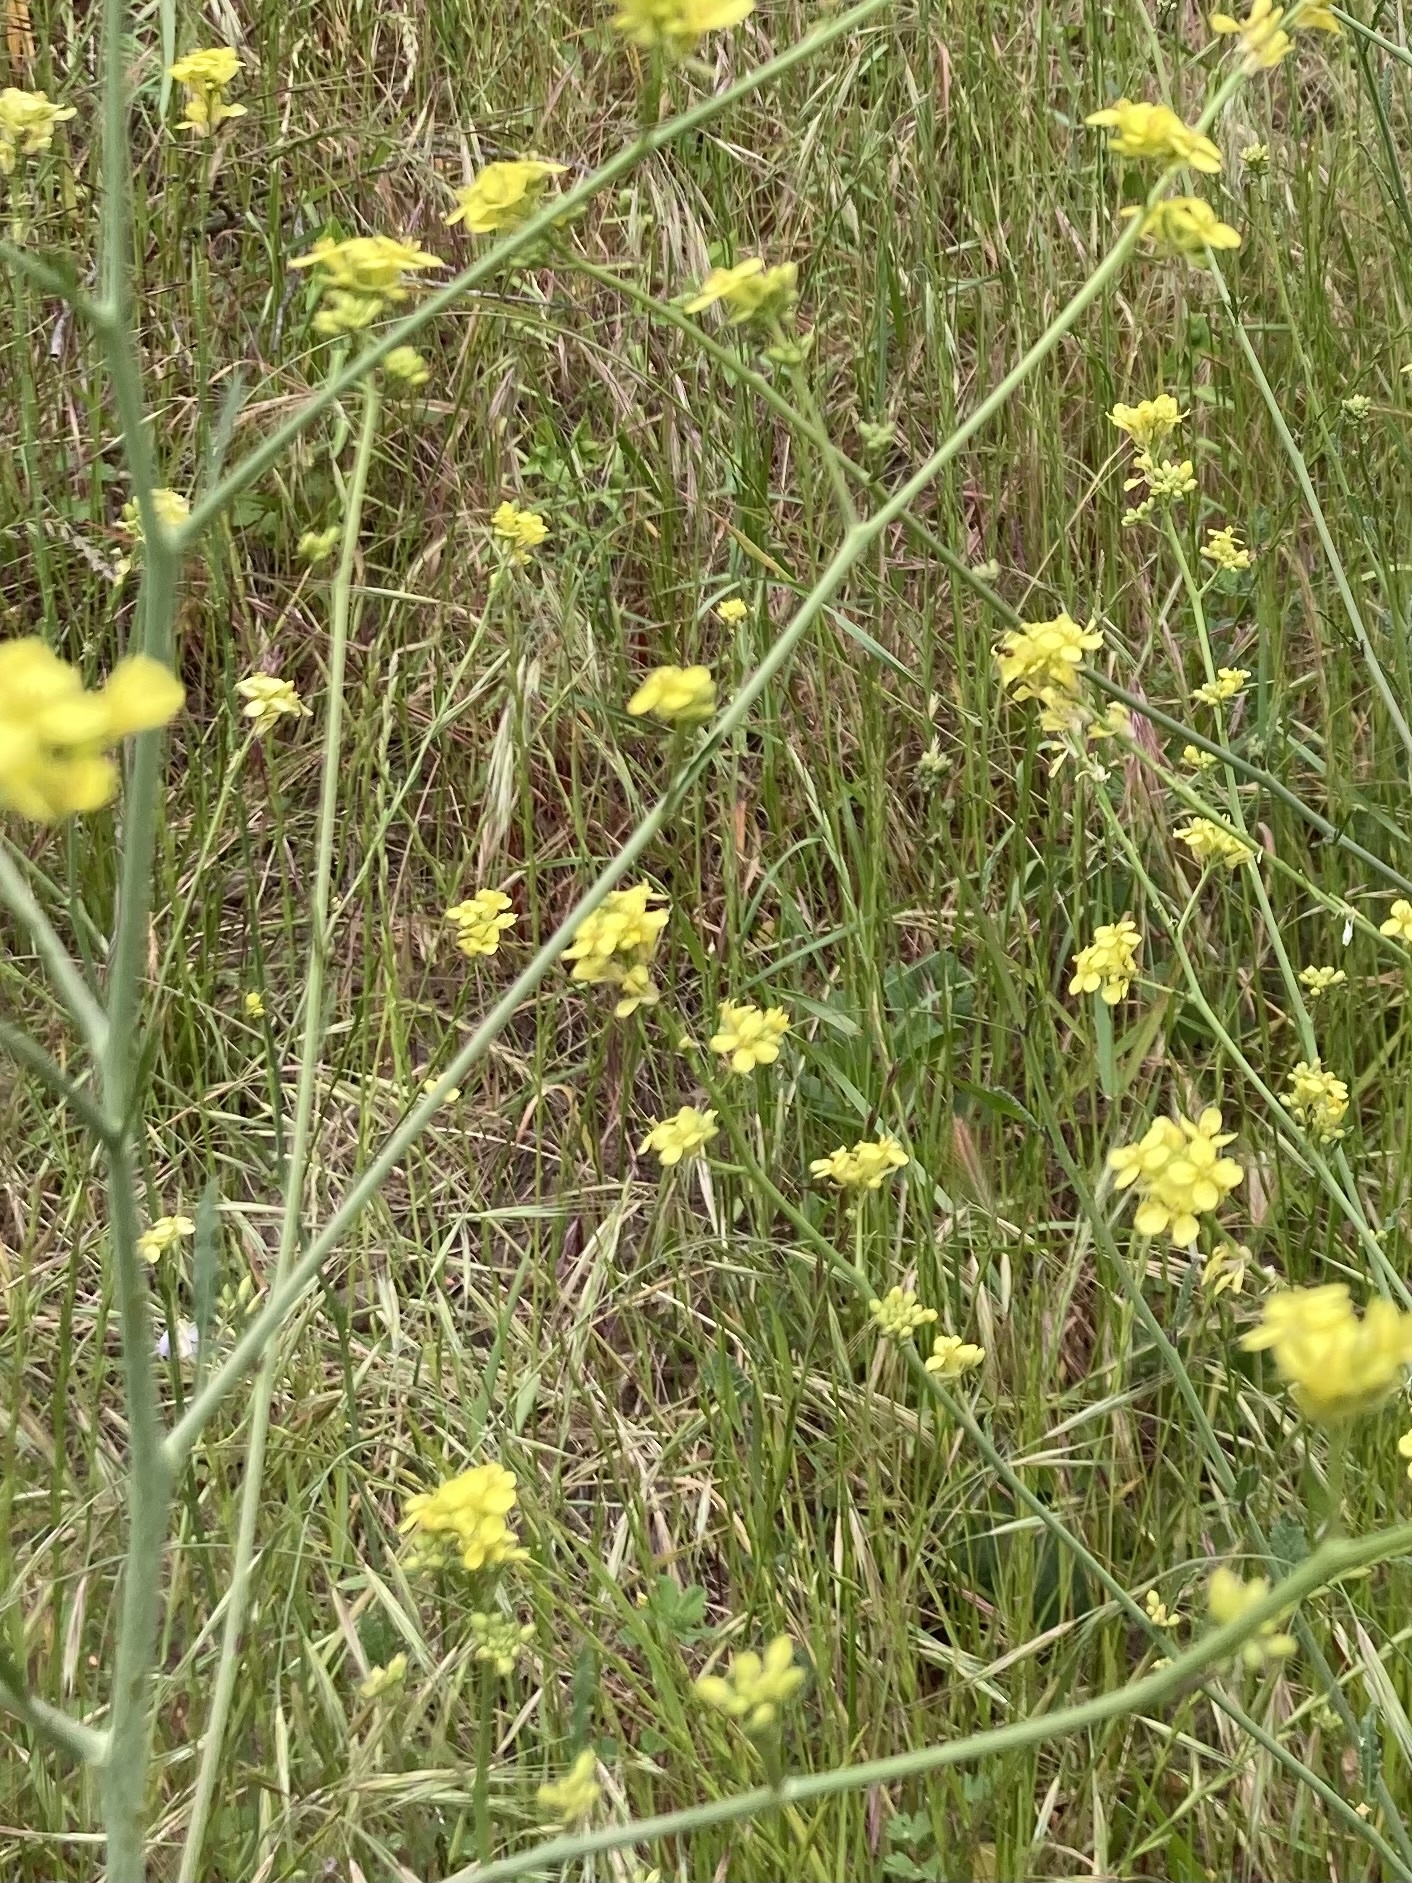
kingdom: Plantae
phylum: Tracheophyta
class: Magnoliopsida
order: Brassicales
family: Brassicaceae
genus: Hirschfeldia
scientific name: Hirschfeldia incana
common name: Hoary mustard
